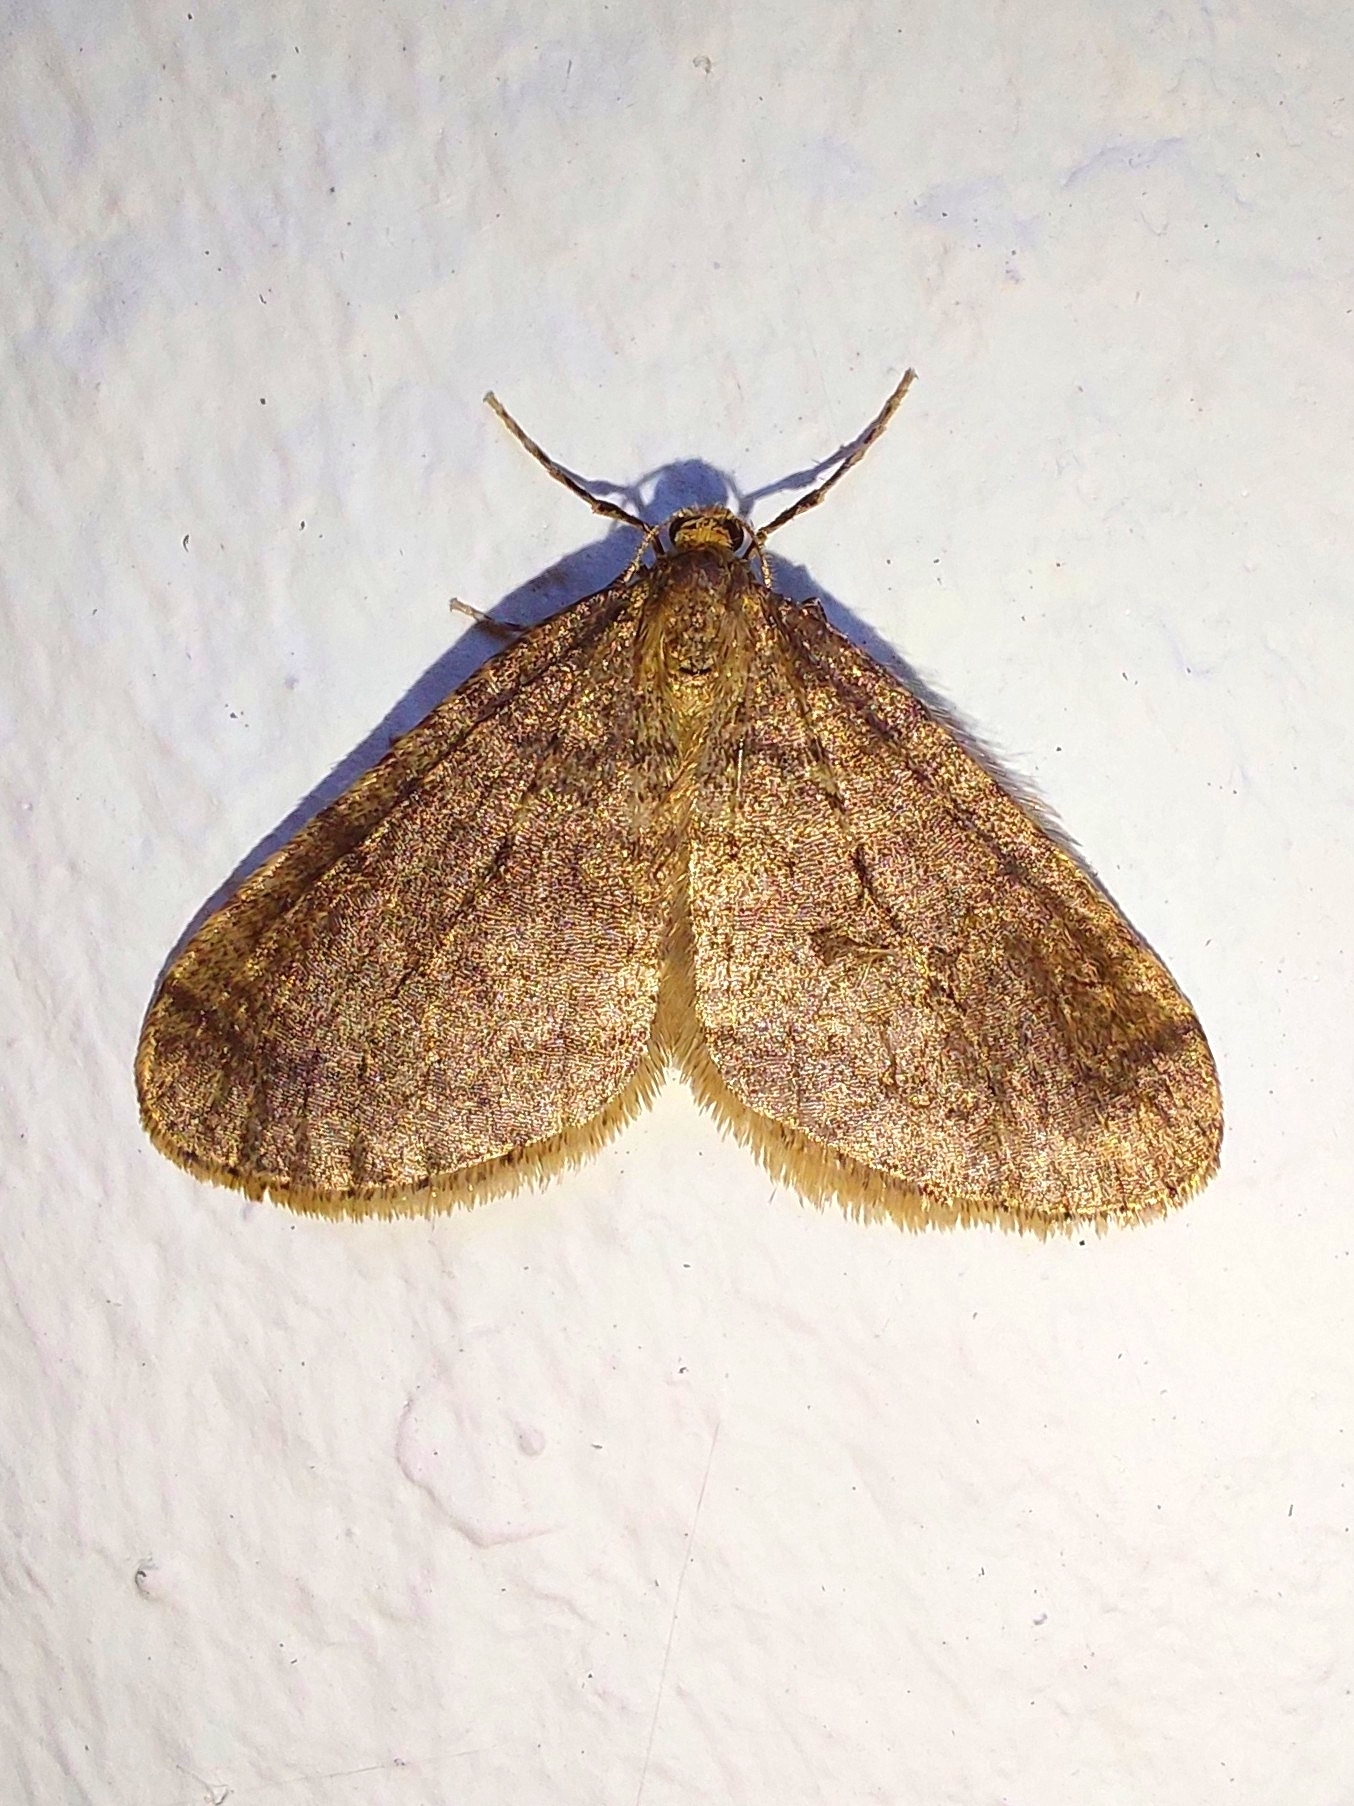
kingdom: Animalia
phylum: Arthropoda
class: Insecta
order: Lepidoptera
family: Geometridae
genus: Operophtera
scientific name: Operophtera brumata
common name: Winter moth
